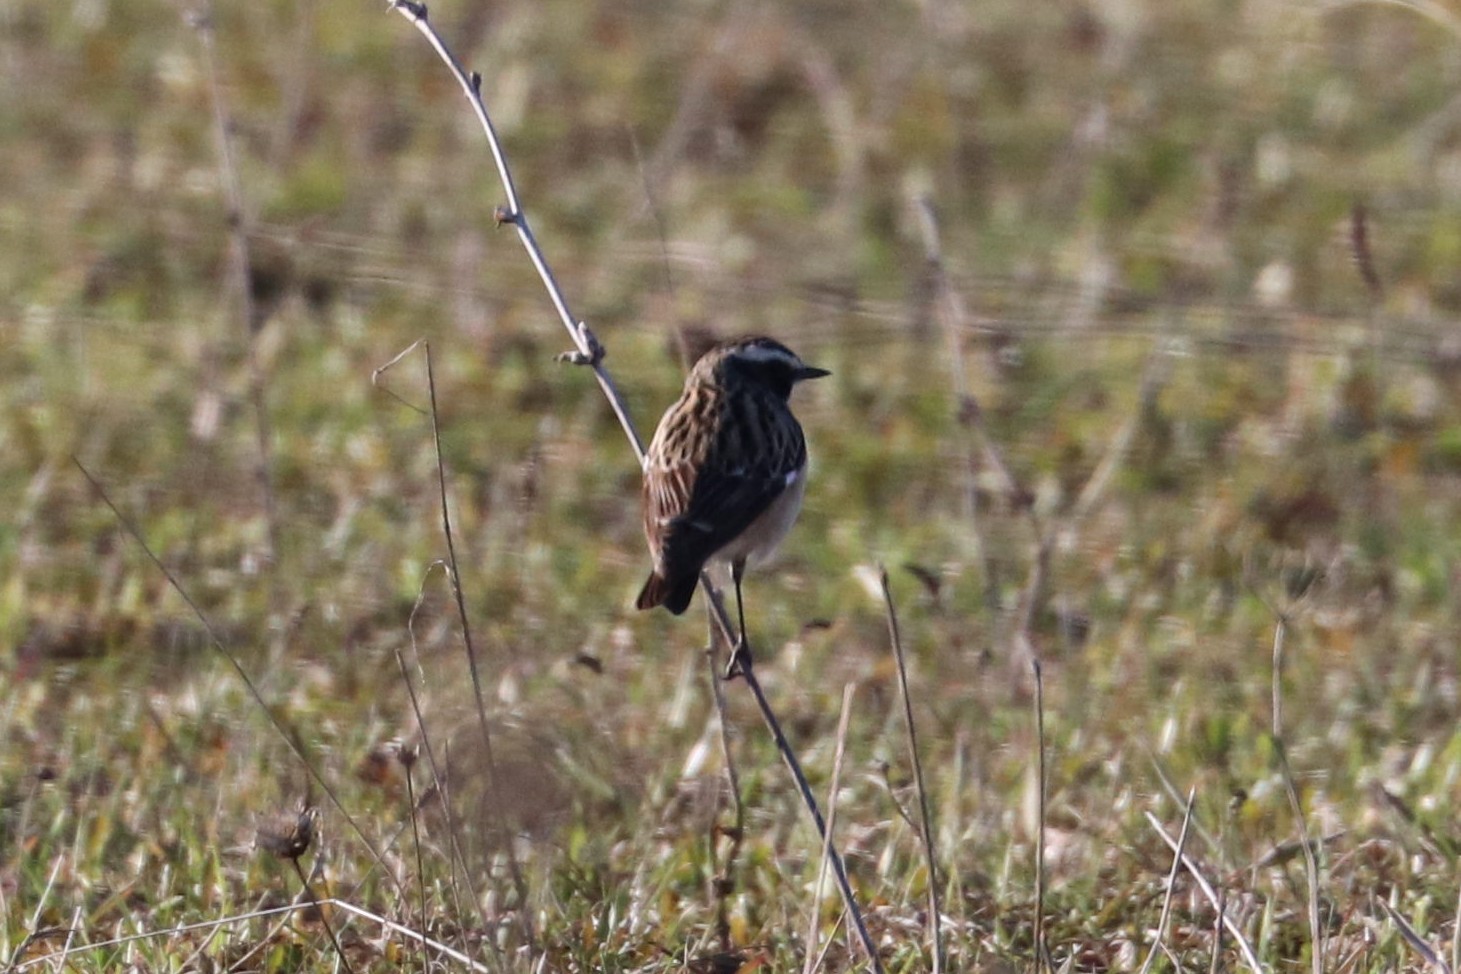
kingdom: Animalia
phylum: Chordata
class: Aves
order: Passeriformes
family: Muscicapidae
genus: Saxicola
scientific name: Saxicola rubetra
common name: Whinchat
